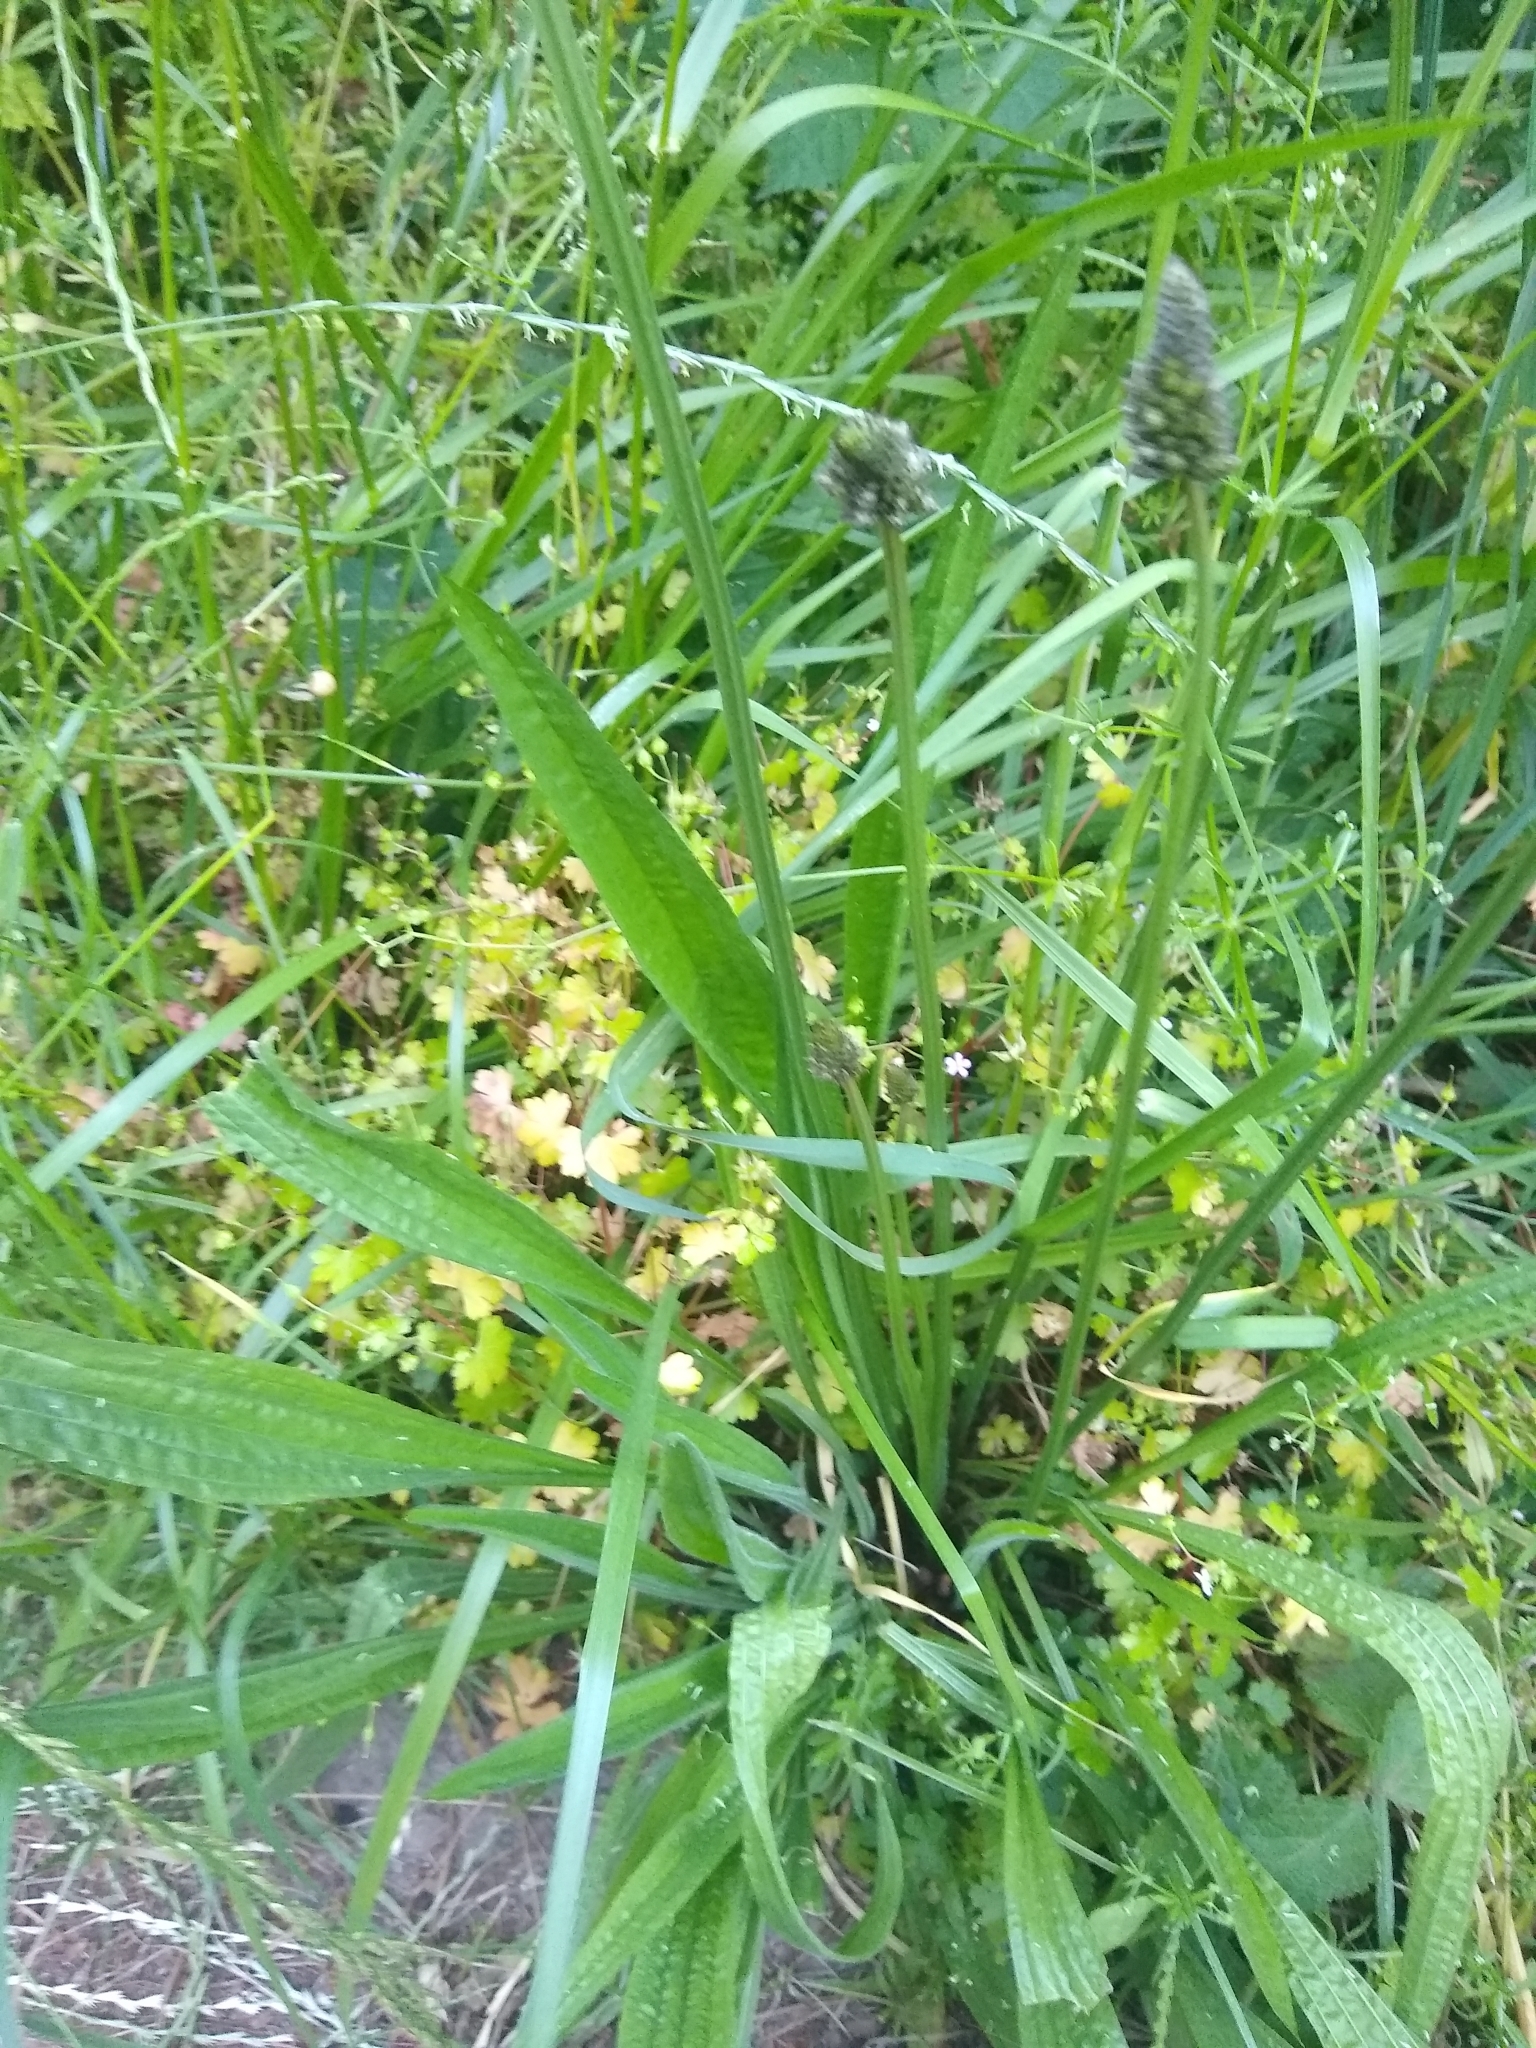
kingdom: Plantae
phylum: Tracheophyta
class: Magnoliopsida
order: Lamiales
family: Plantaginaceae
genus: Plantago
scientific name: Plantago lanceolata
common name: Ribwort plantain
